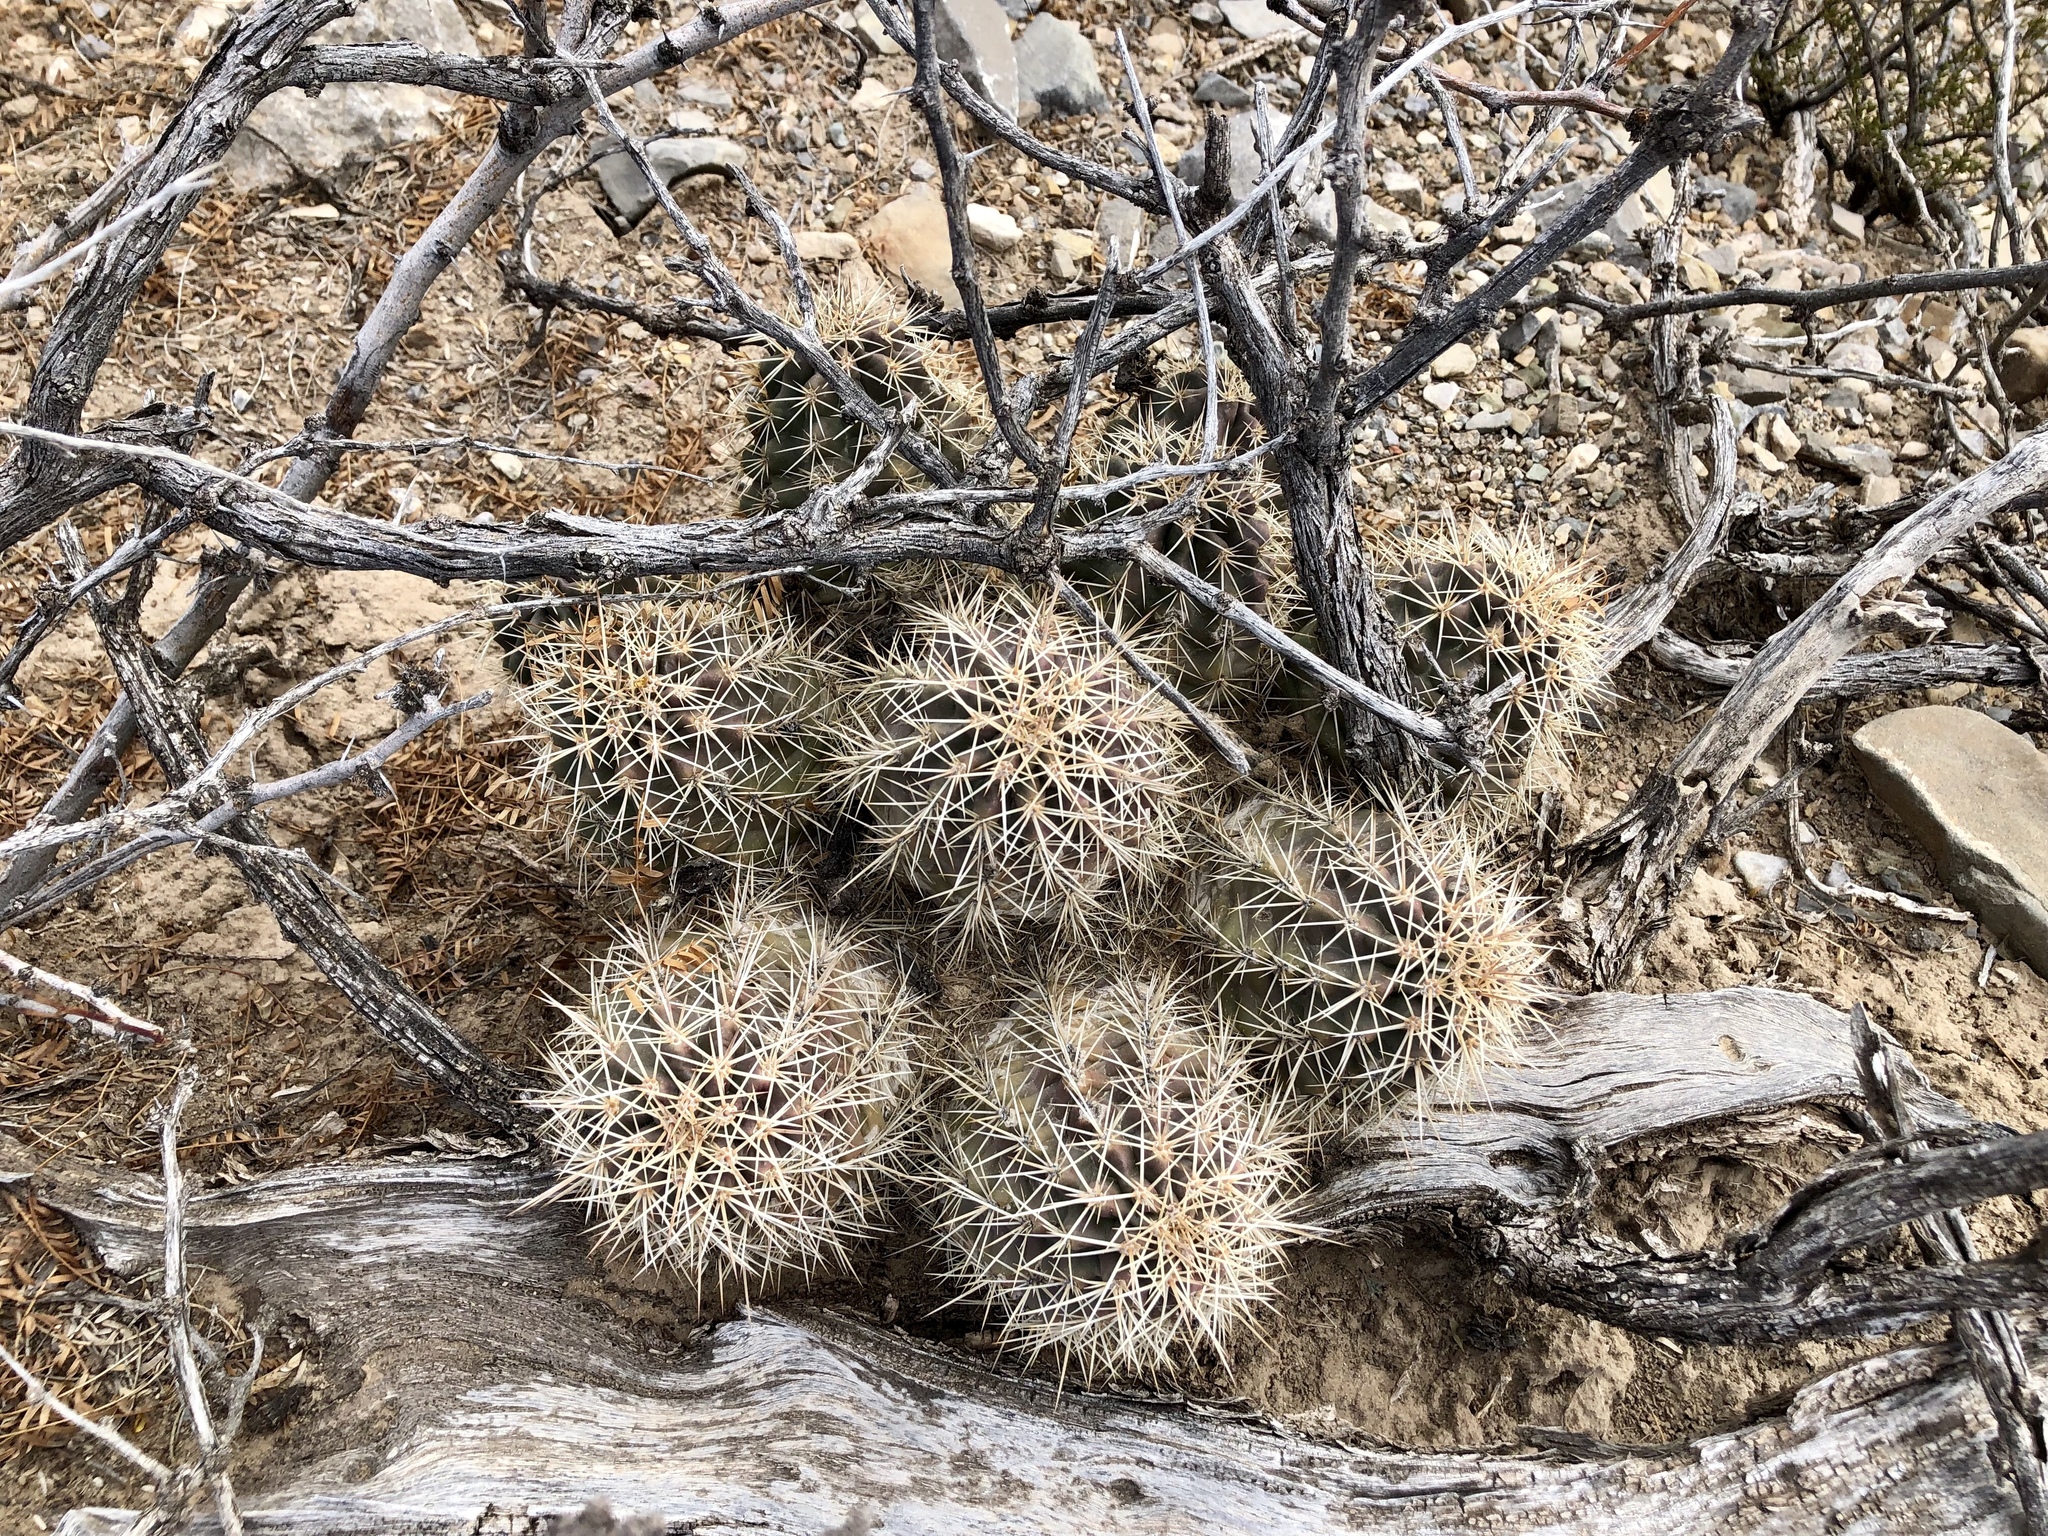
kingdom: Plantae
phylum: Tracheophyta
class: Magnoliopsida
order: Caryophyllales
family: Cactaceae
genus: Echinocereus
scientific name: Echinocereus coccineus
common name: Scarlet hedgehog cactus
